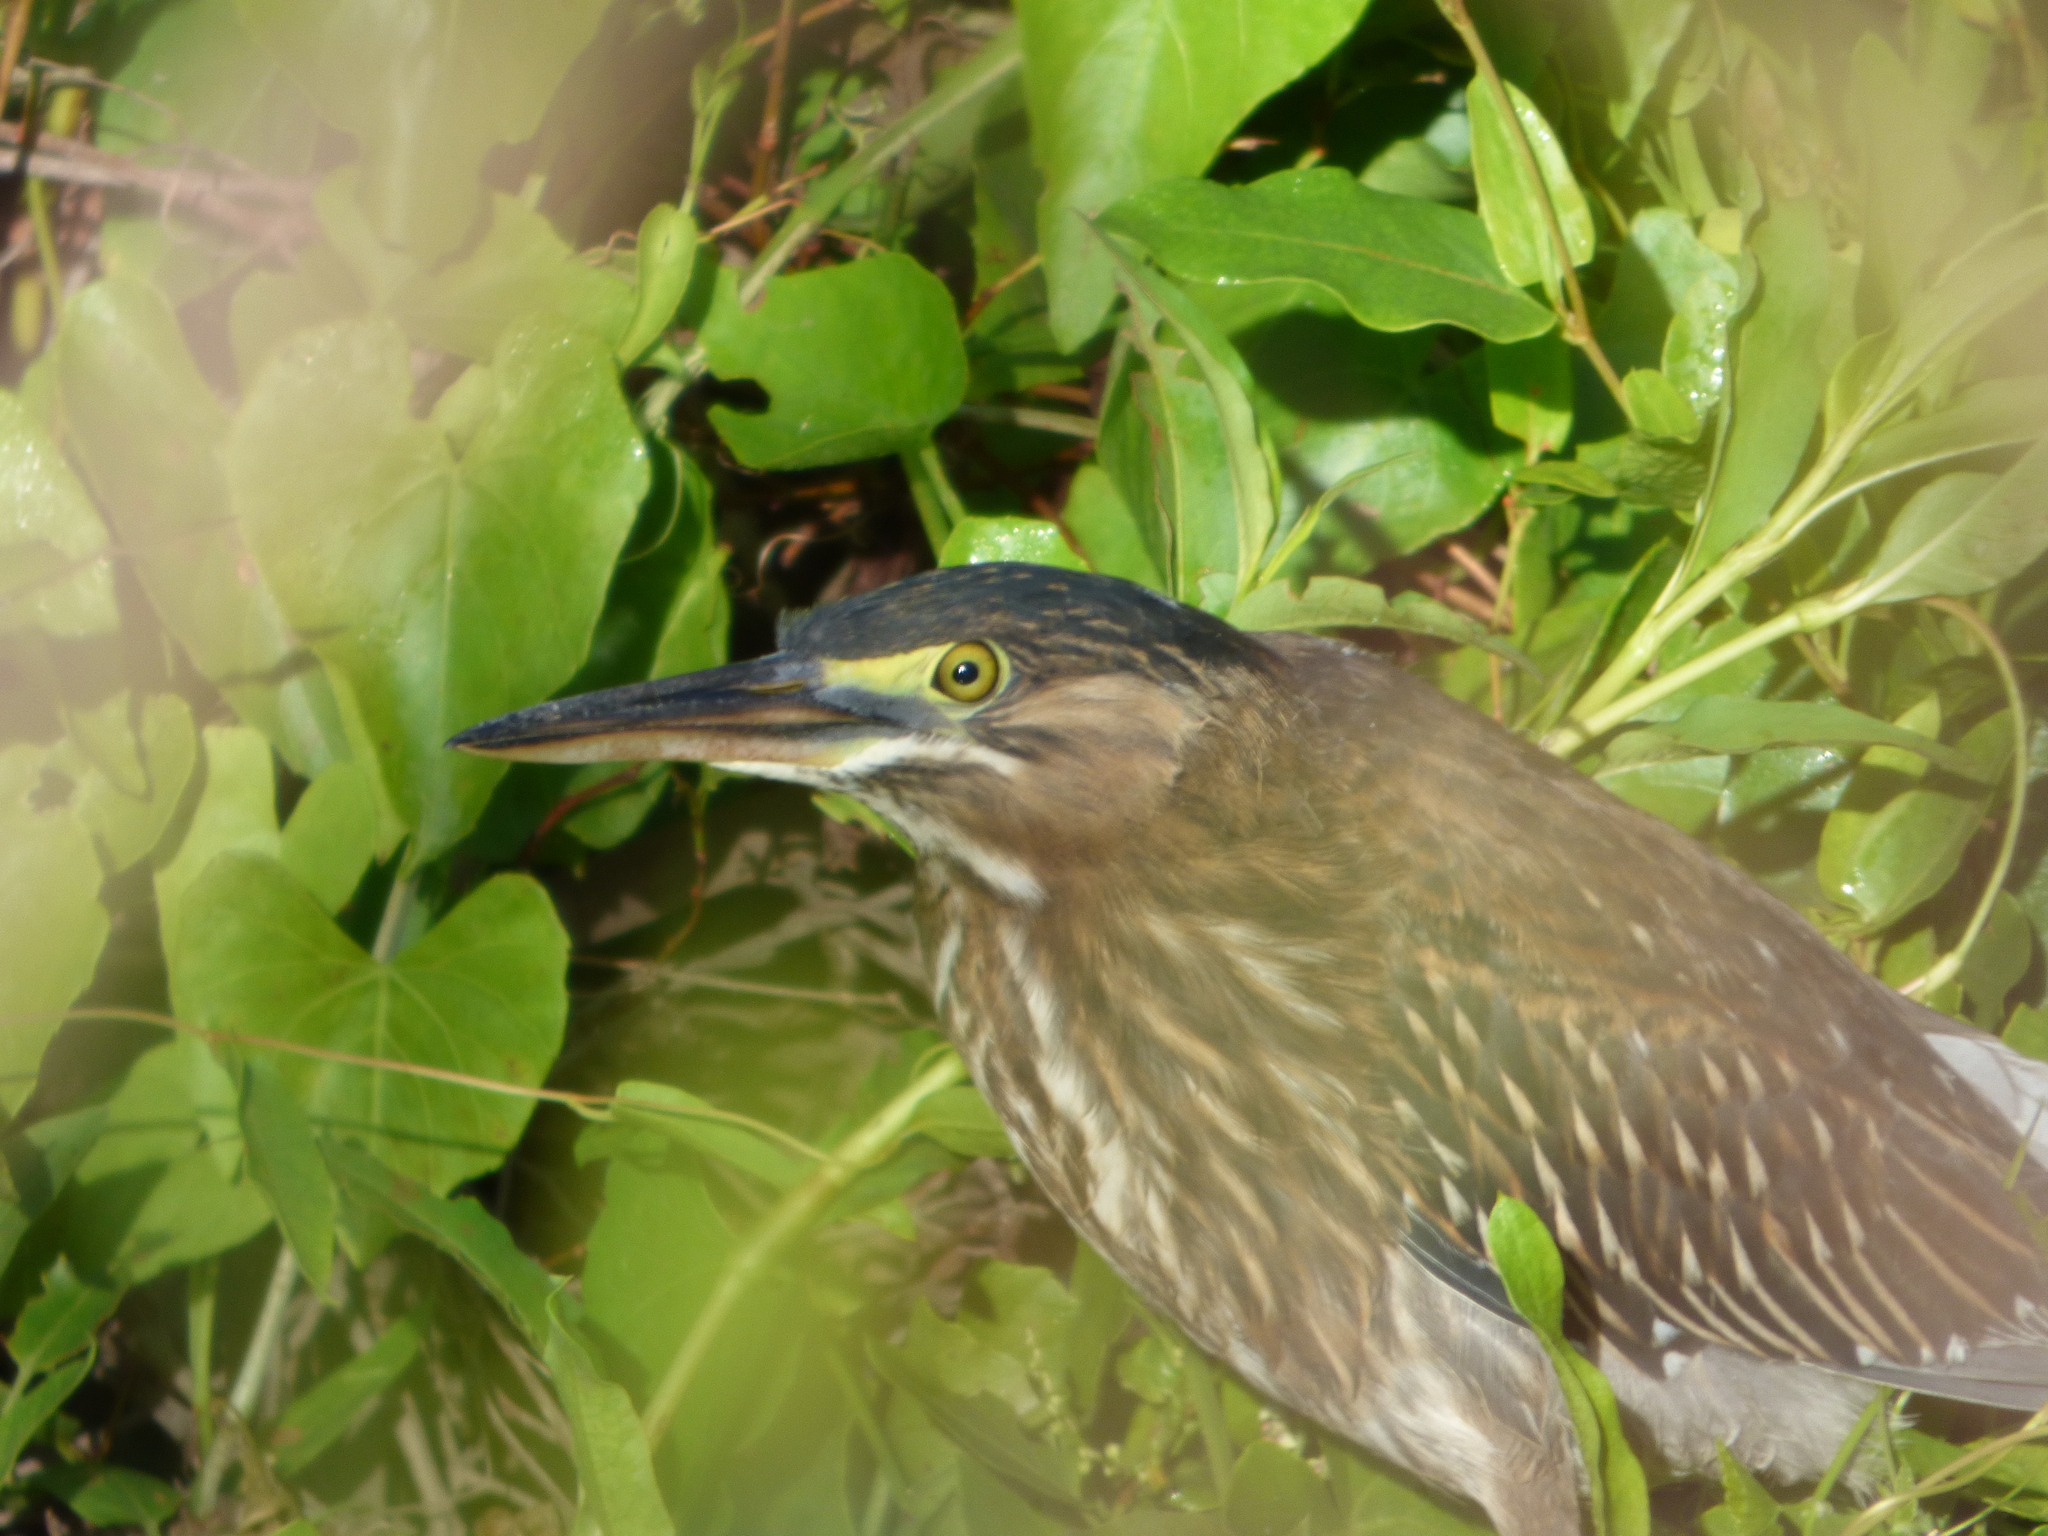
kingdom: Animalia
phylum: Chordata
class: Aves
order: Pelecaniformes
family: Ardeidae
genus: Butorides
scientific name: Butorides striata
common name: Striated heron
